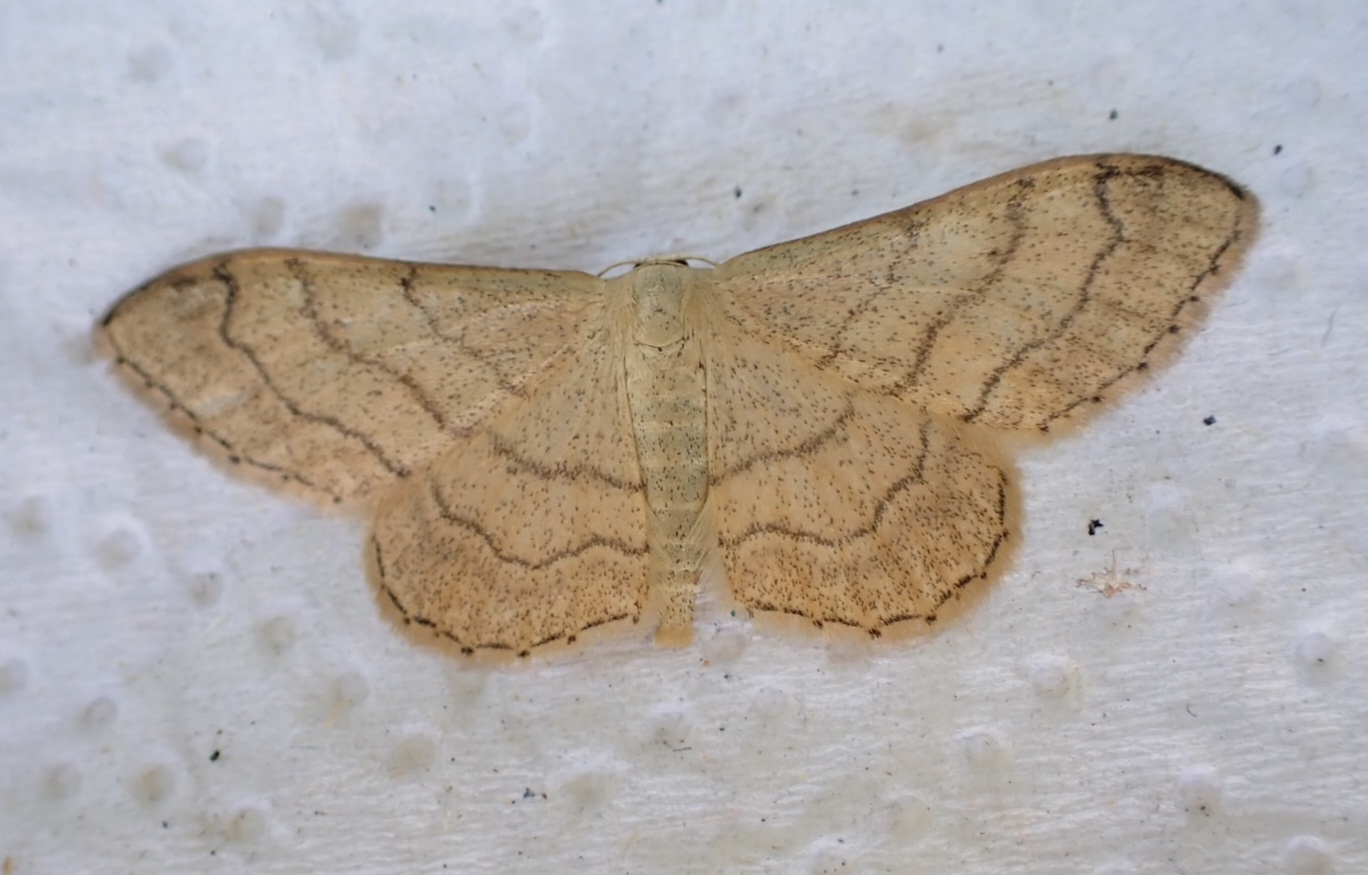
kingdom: Animalia
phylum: Arthropoda
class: Insecta
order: Lepidoptera
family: Geometridae
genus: Idaea
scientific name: Idaea aversata
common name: Riband wave
